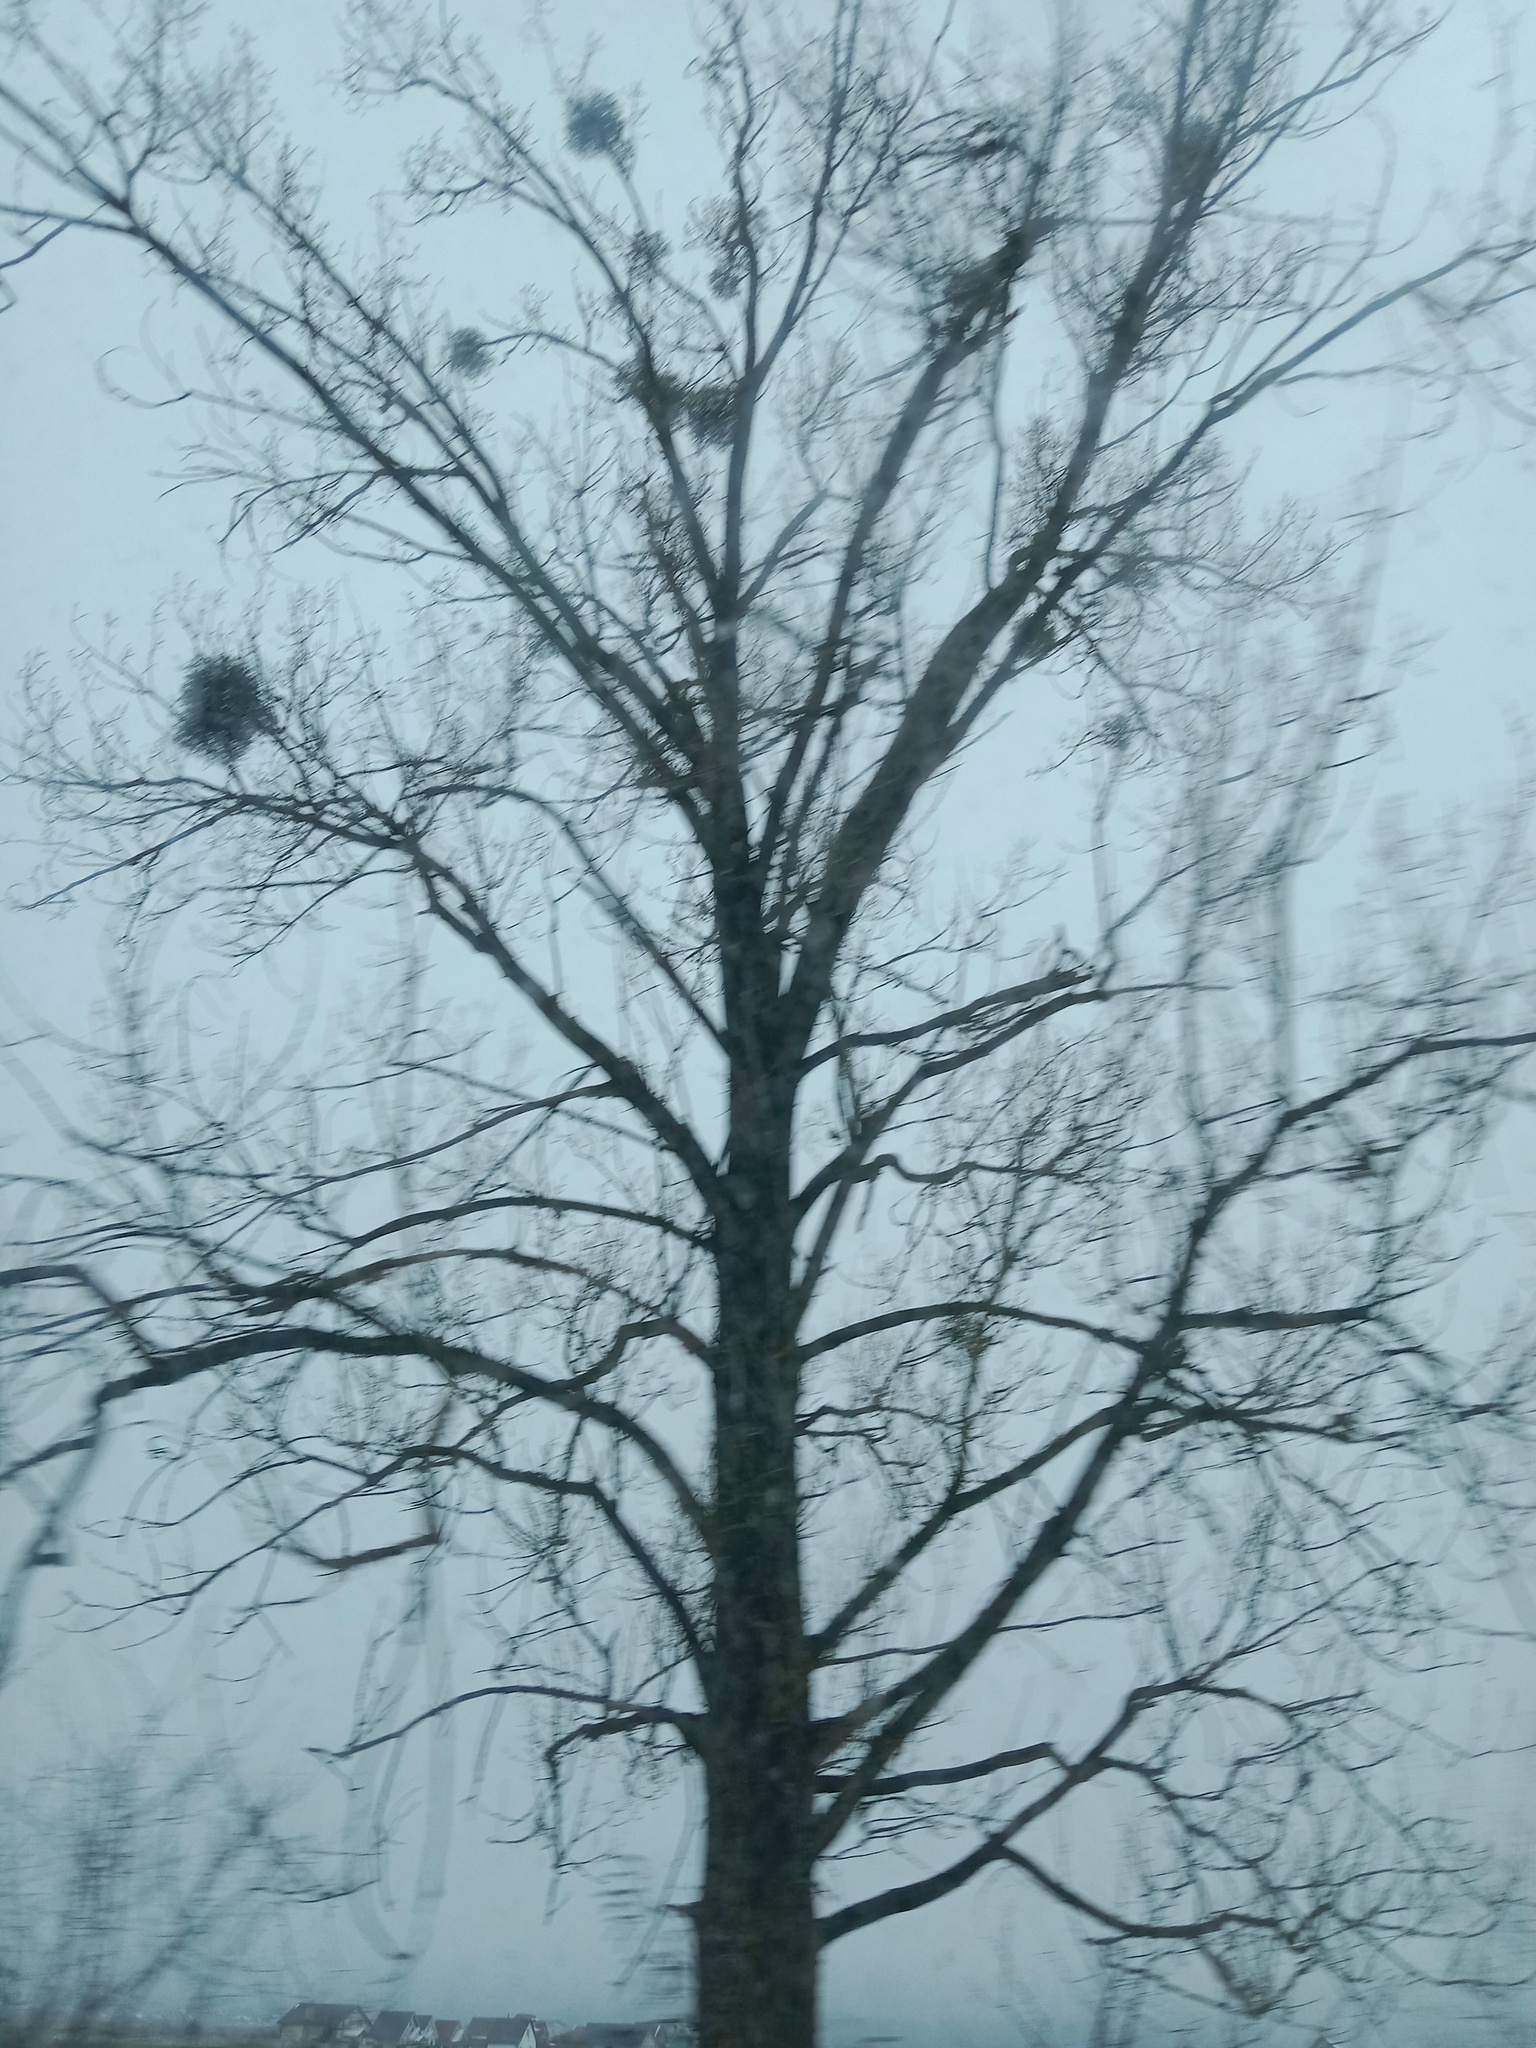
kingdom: Plantae
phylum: Tracheophyta
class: Magnoliopsida
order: Santalales
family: Viscaceae
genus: Viscum
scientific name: Viscum album
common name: Mistletoe
